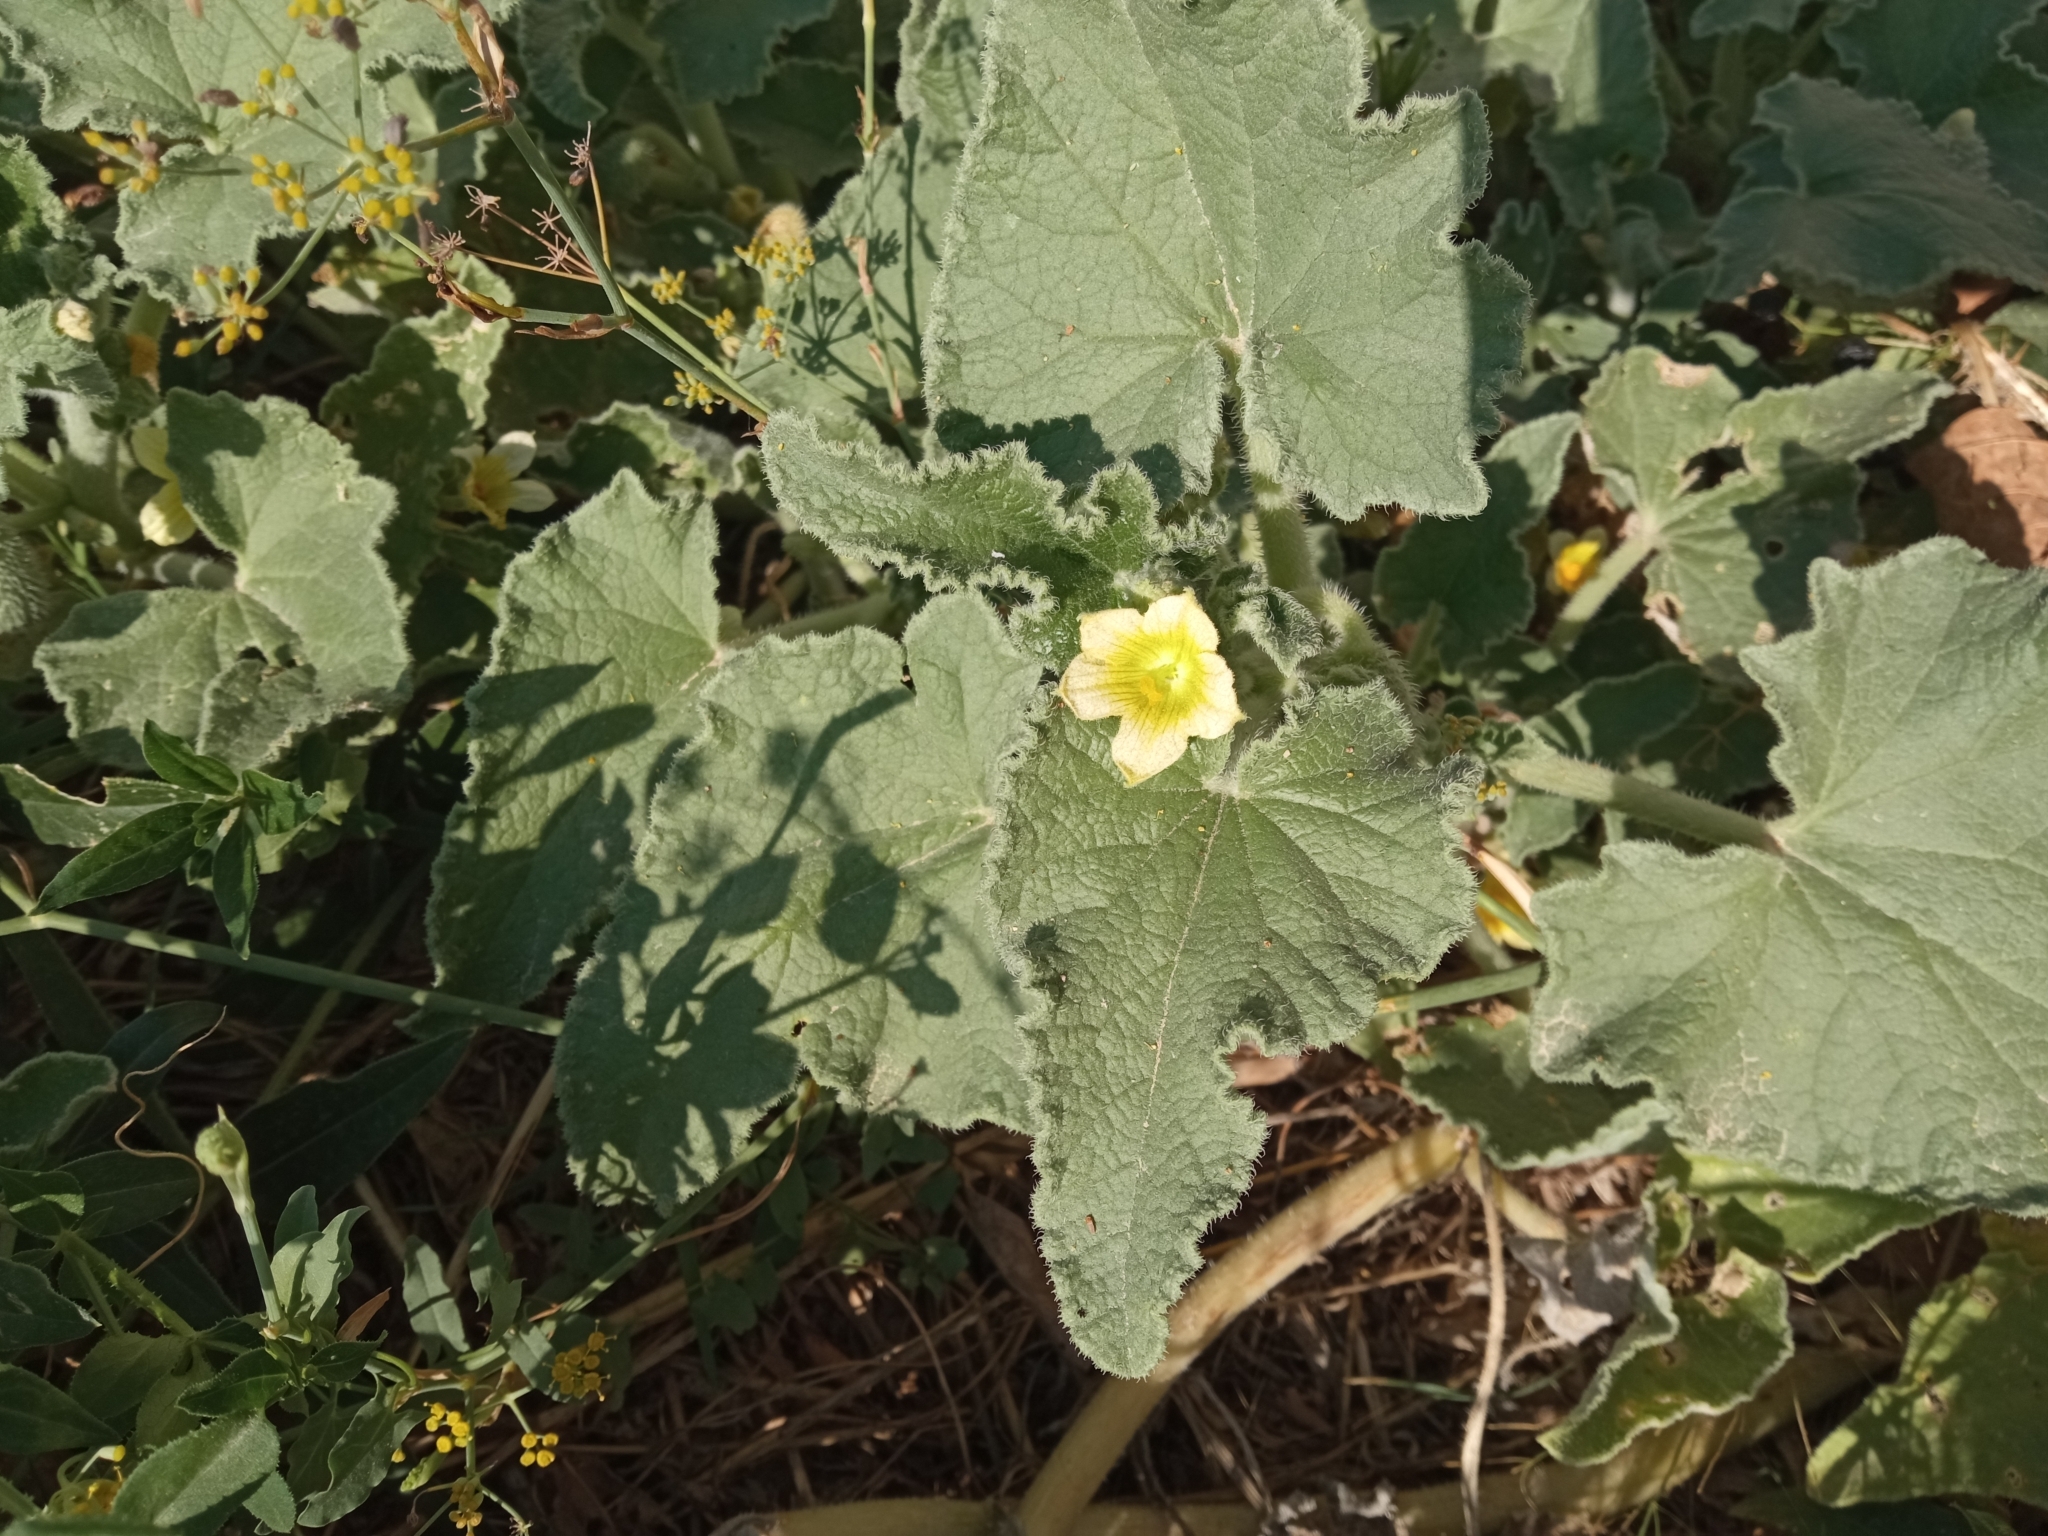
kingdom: Plantae
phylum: Tracheophyta
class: Magnoliopsida
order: Cucurbitales
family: Cucurbitaceae
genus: Ecballium
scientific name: Ecballium elaterium
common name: Squirting cucumber
